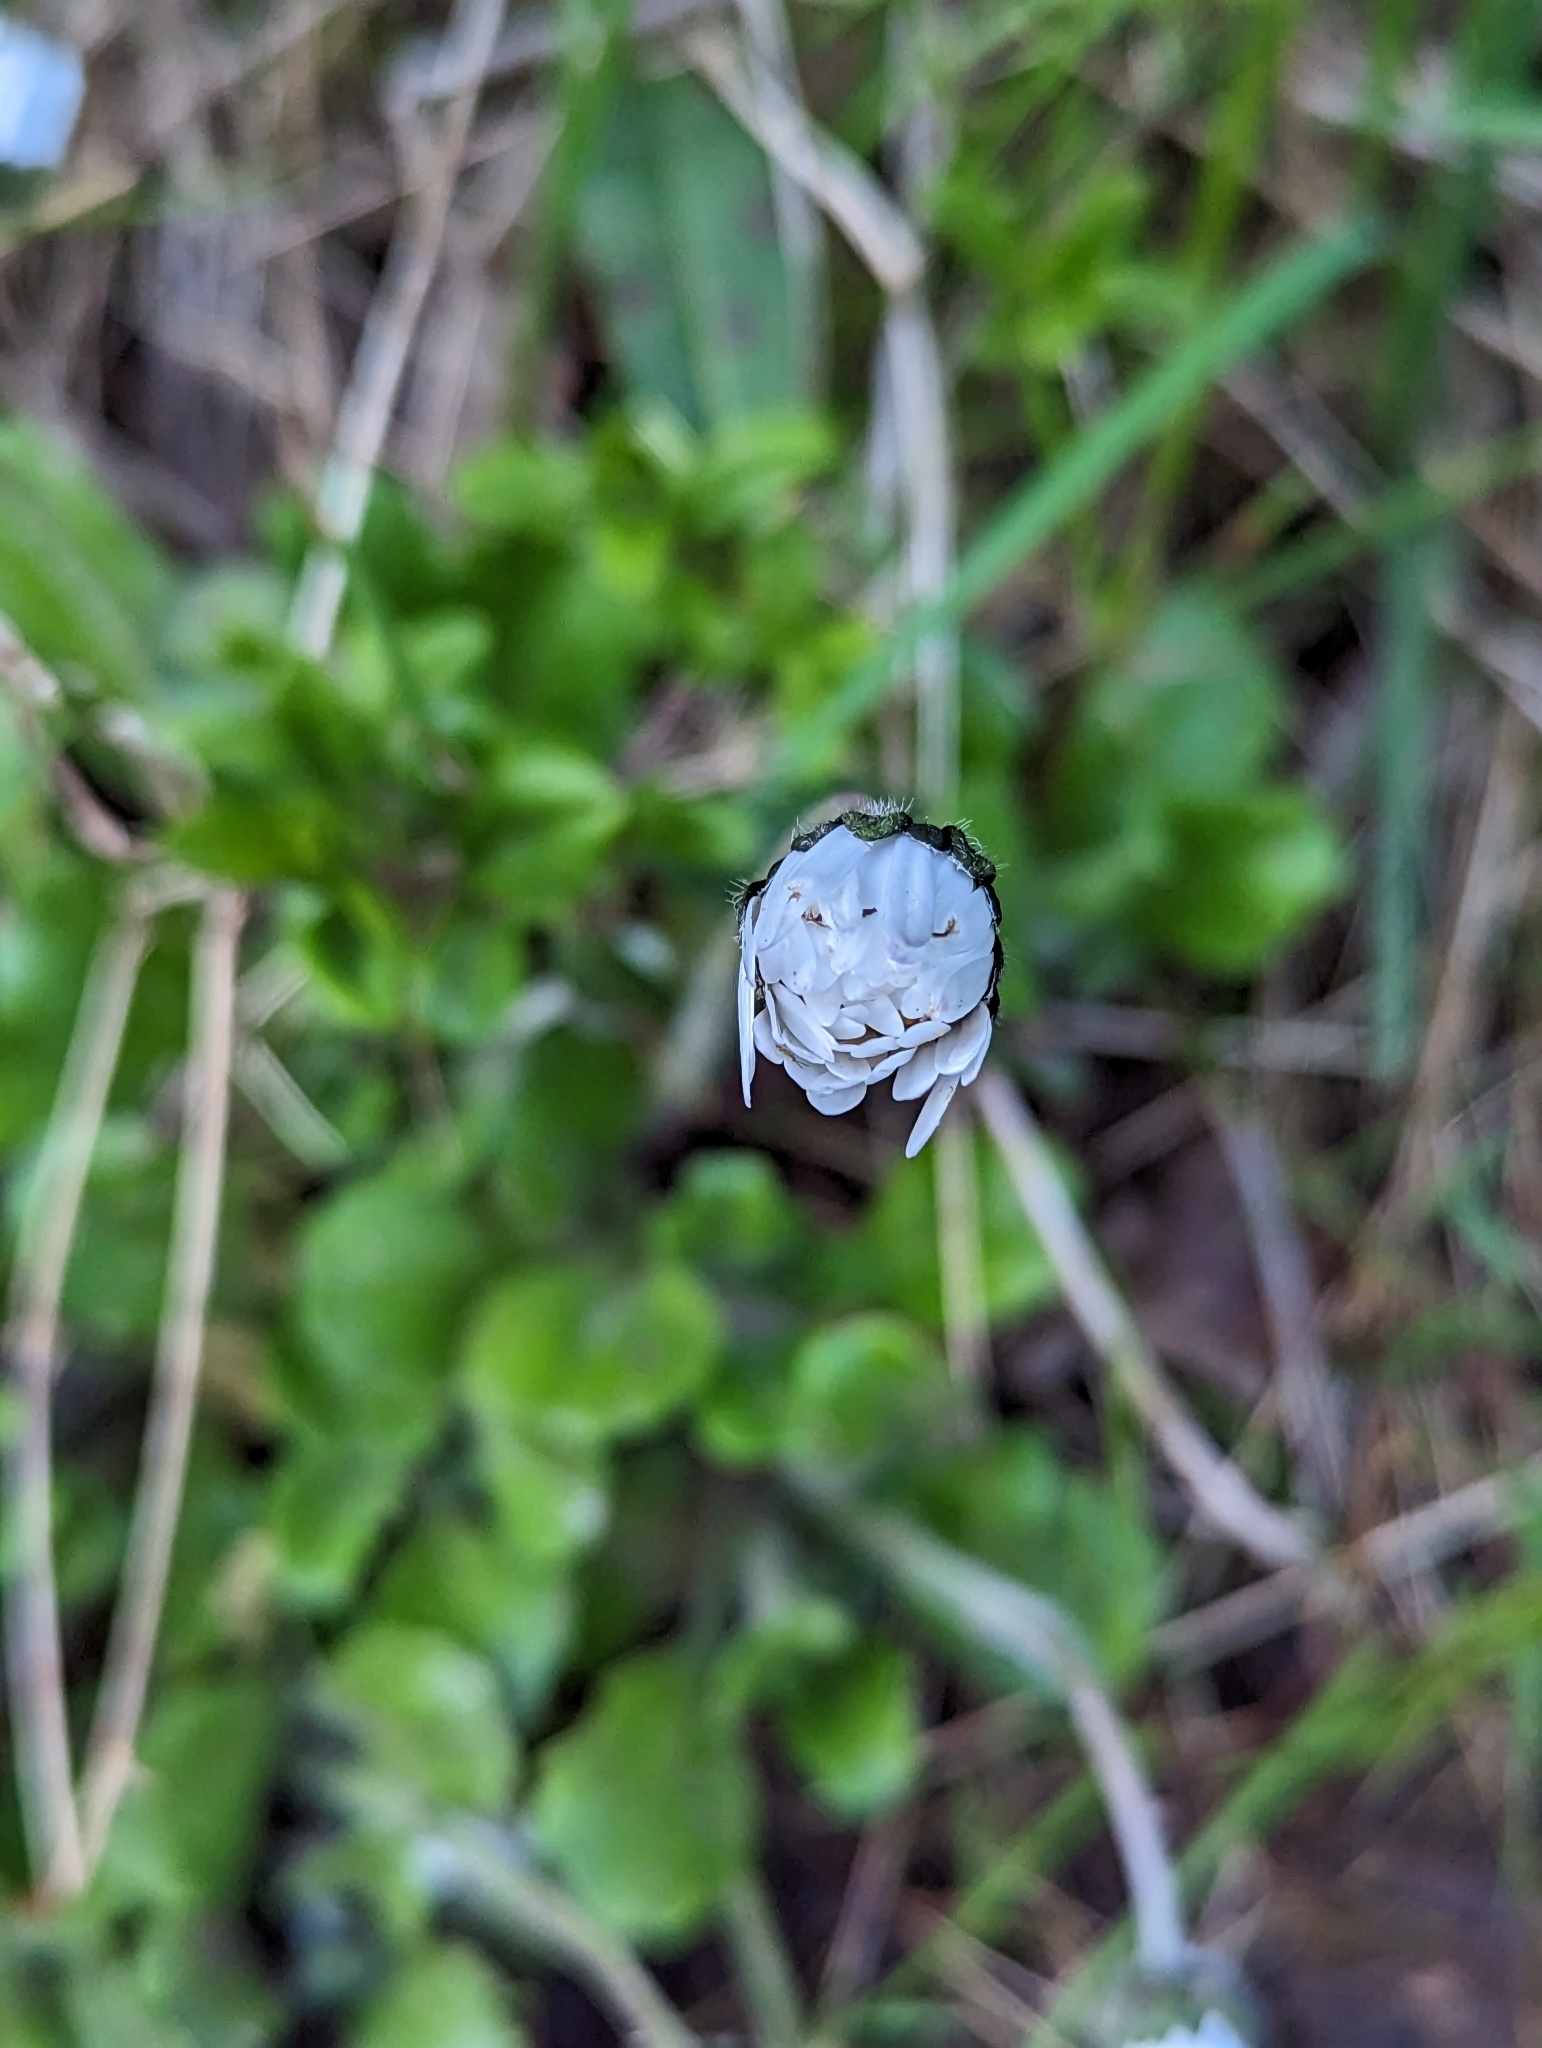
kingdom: Plantae
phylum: Tracheophyta
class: Magnoliopsida
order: Asterales
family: Asteraceae
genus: Bellis
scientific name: Bellis perennis
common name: Lawndaisy
